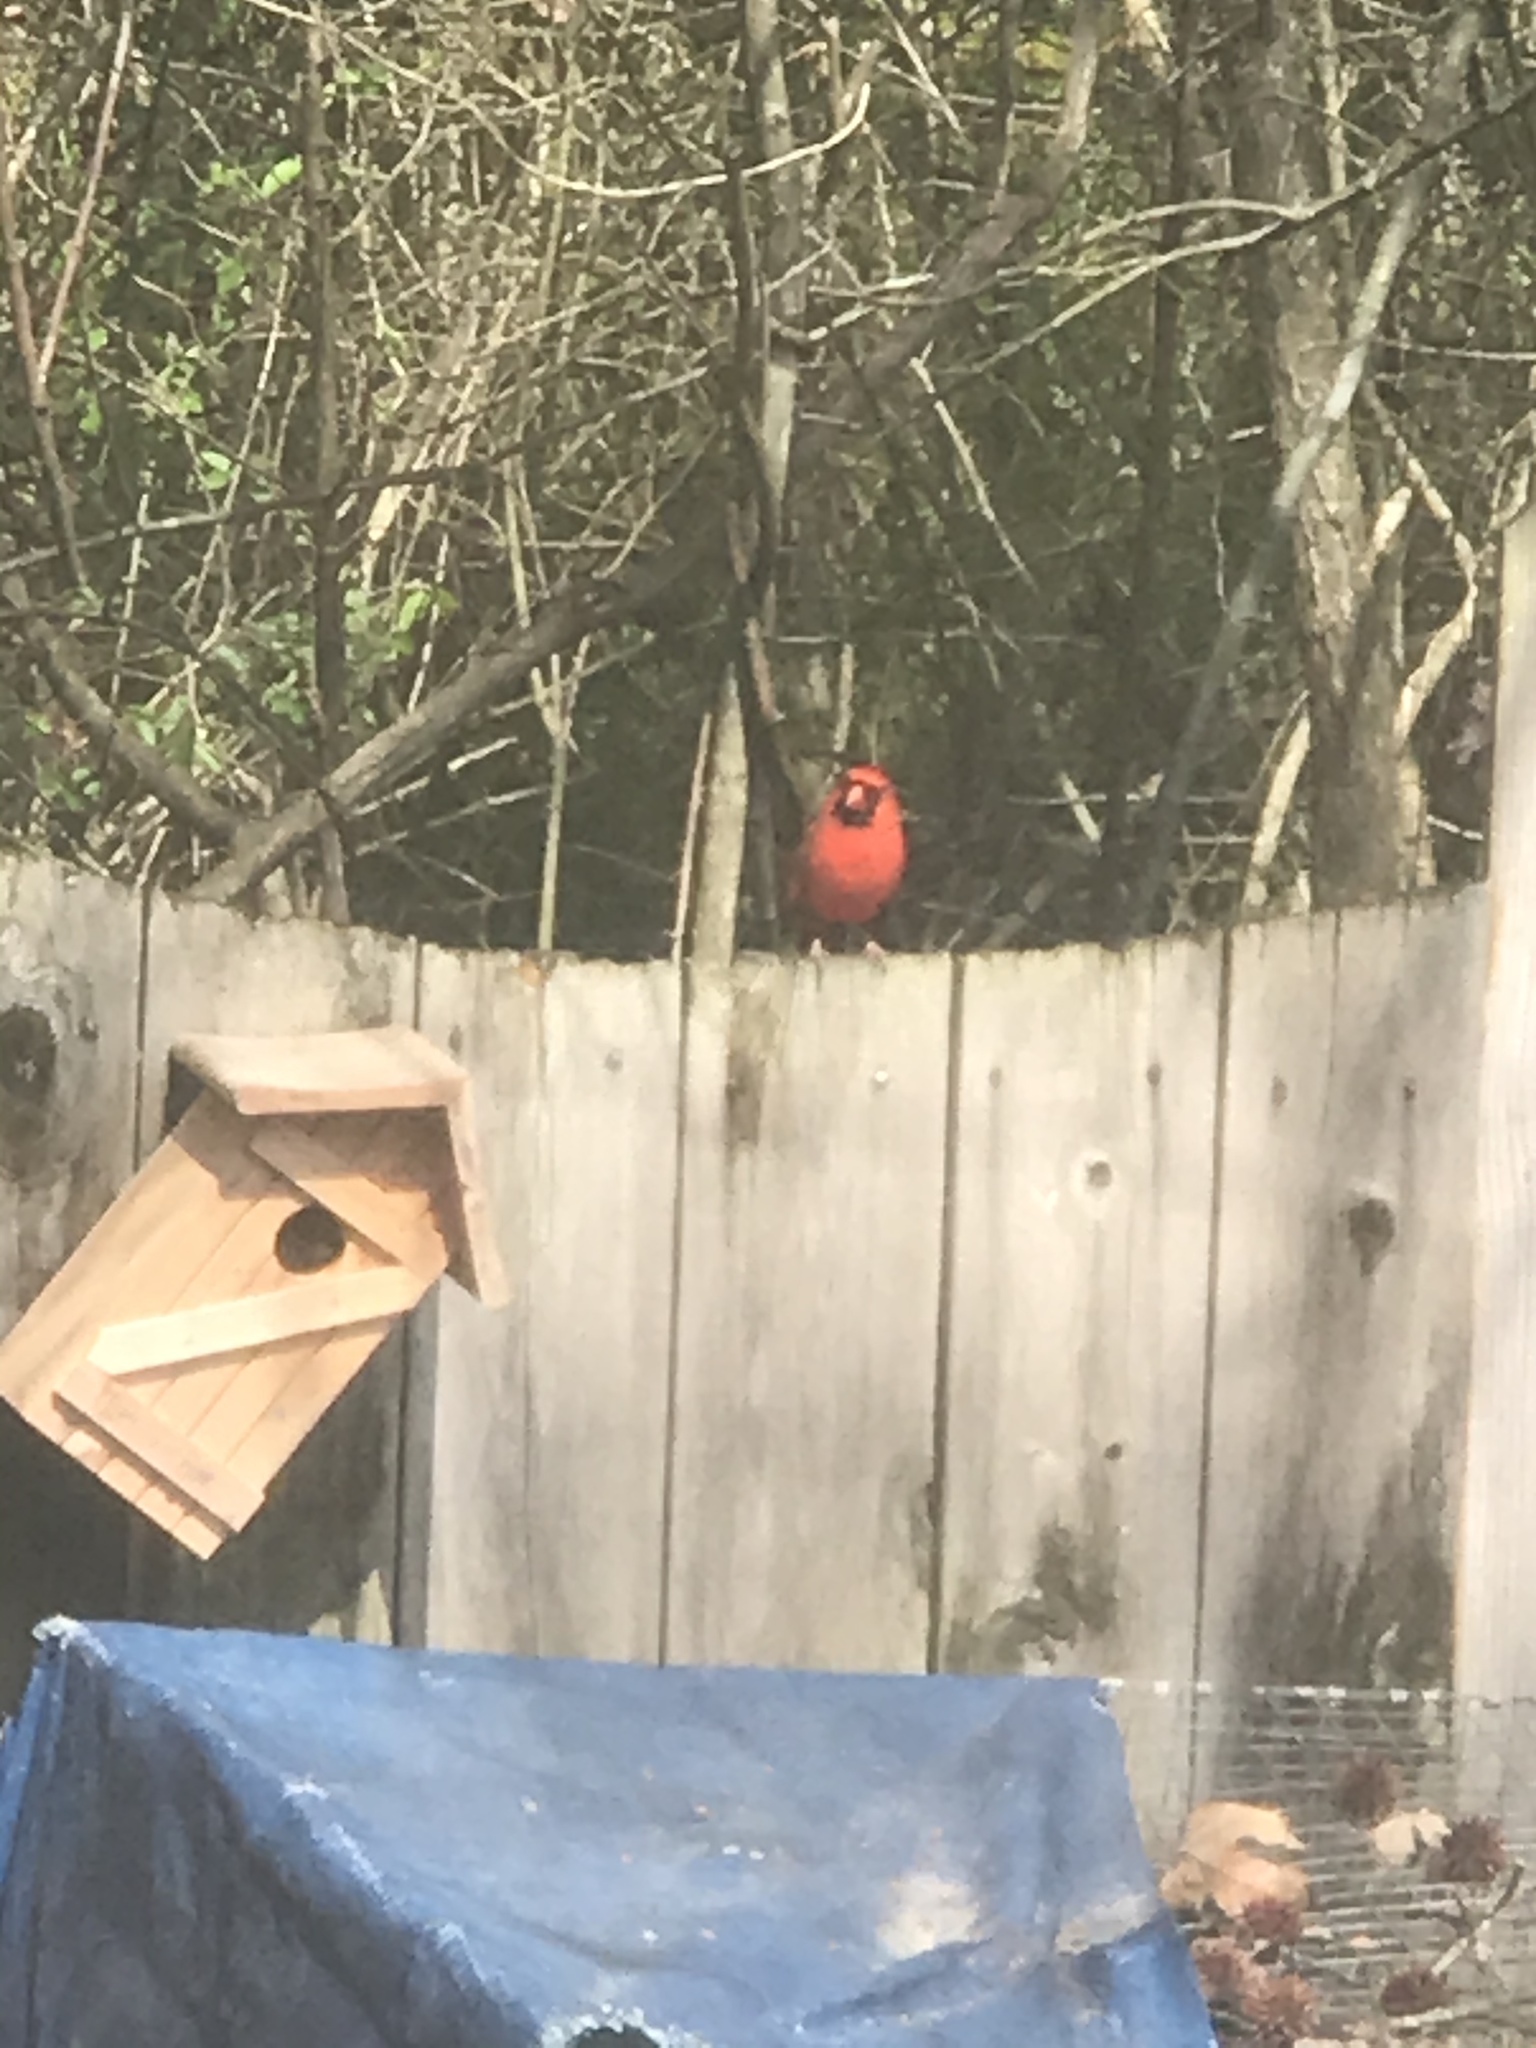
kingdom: Animalia
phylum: Chordata
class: Aves
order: Passeriformes
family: Cardinalidae
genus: Cardinalis
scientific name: Cardinalis cardinalis
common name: Northern cardinal
